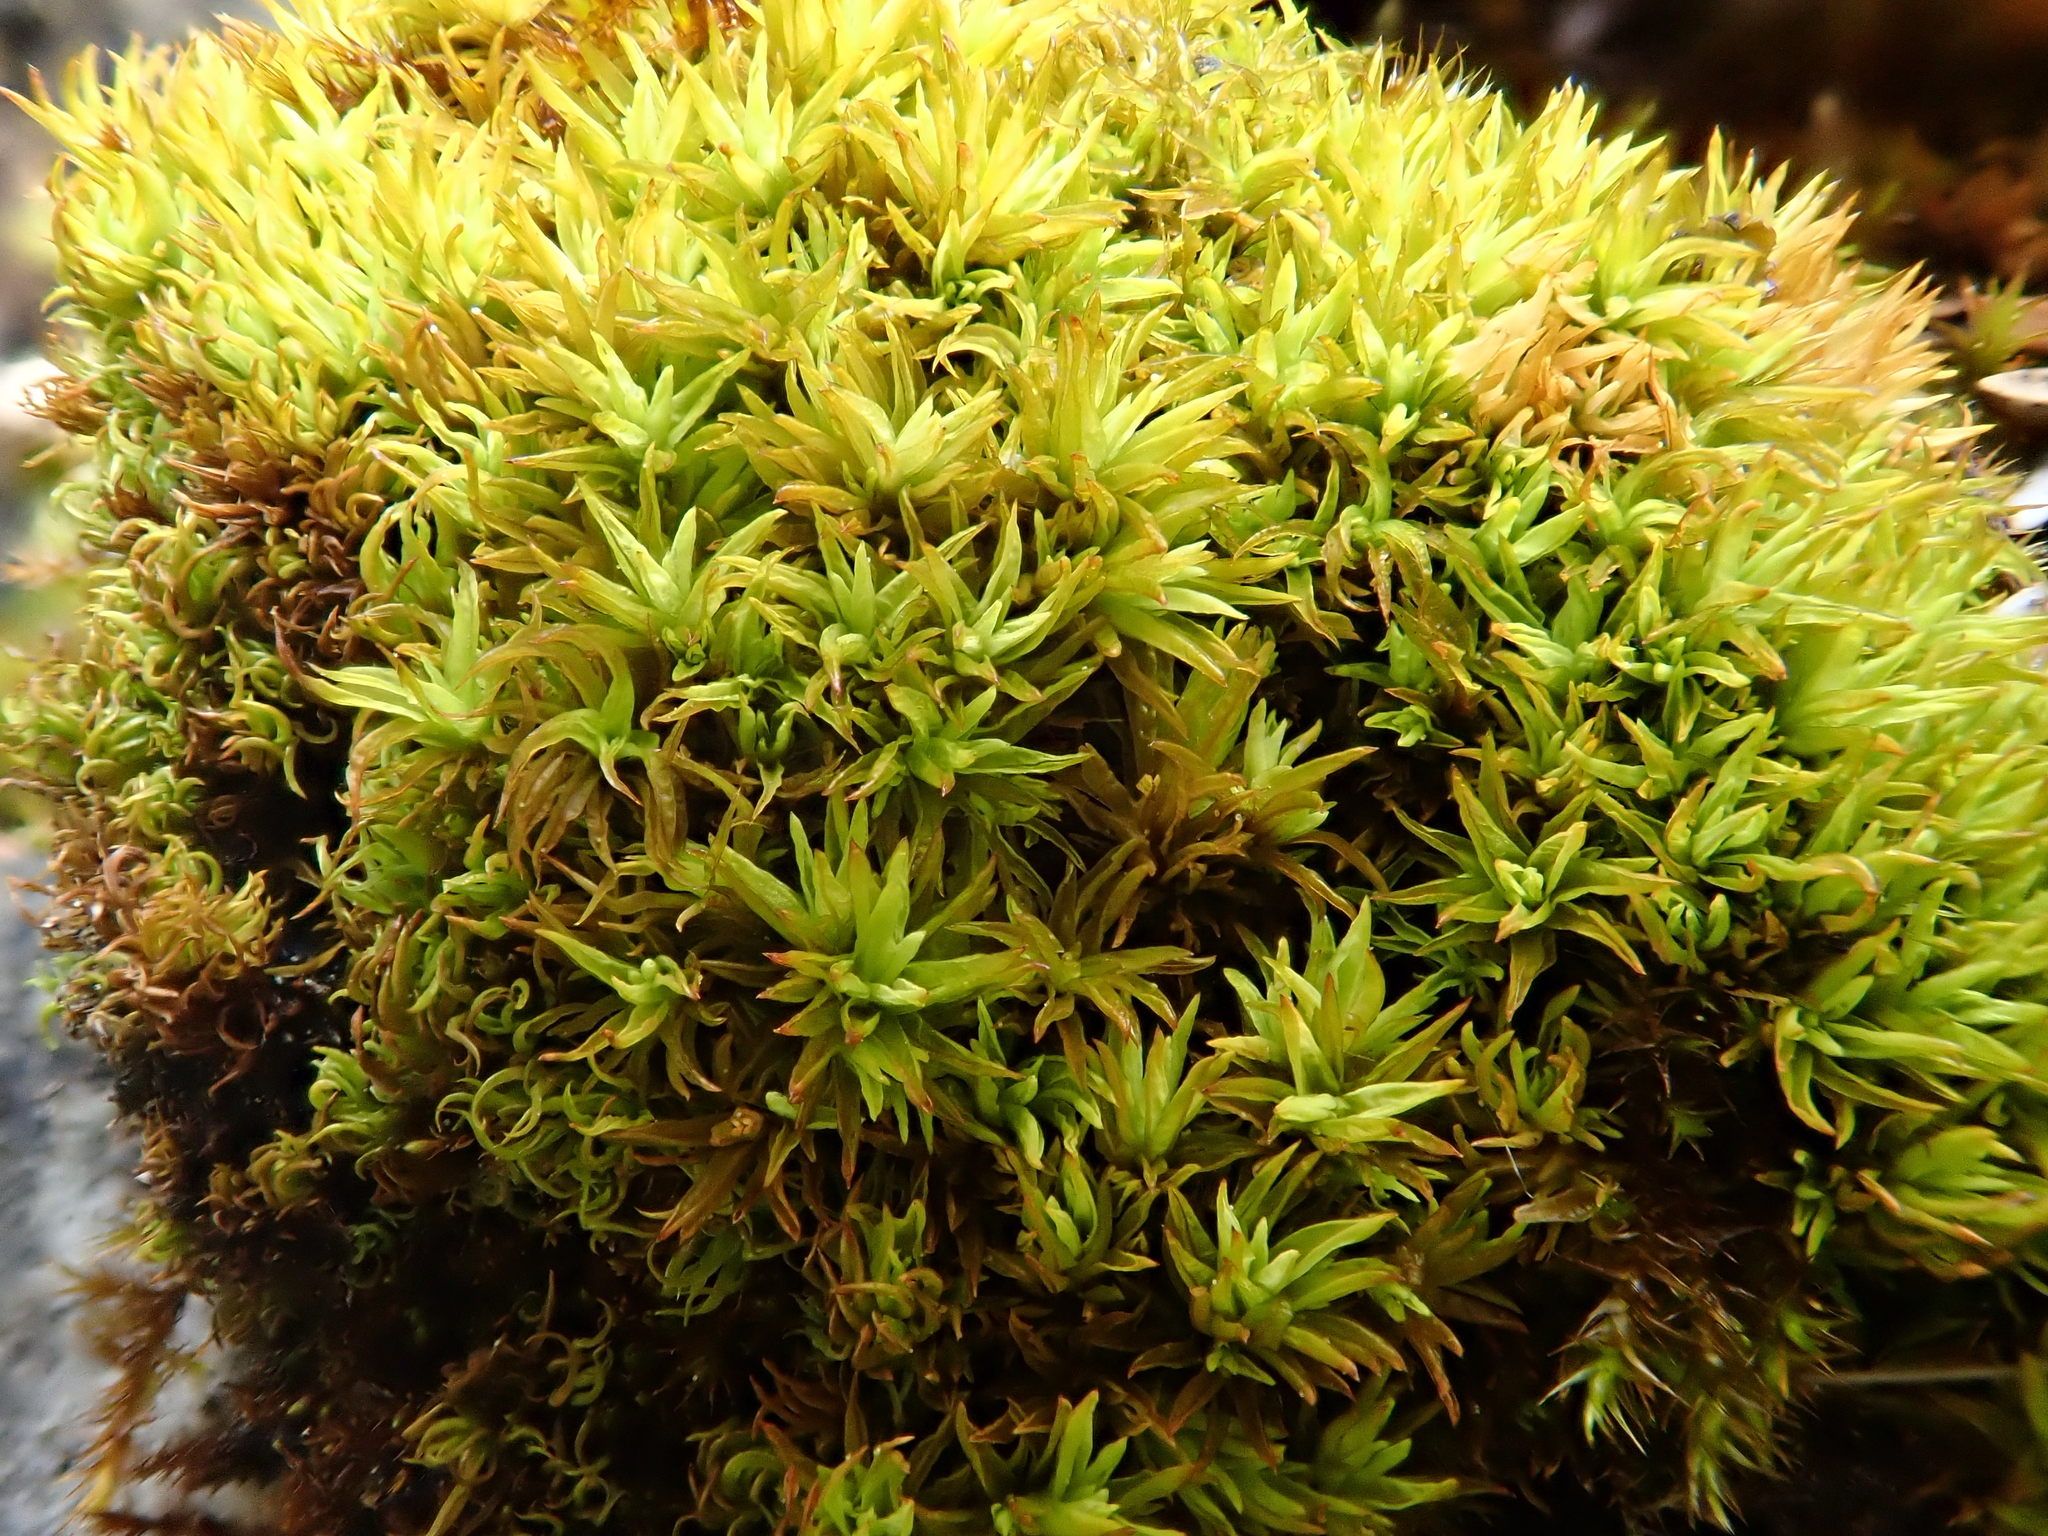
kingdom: Plantae
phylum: Bryophyta
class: Bryopsida
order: Pottiales
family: Pottiaceae
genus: Tortella
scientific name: Tortella inclinata
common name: Inclined twisted moss
